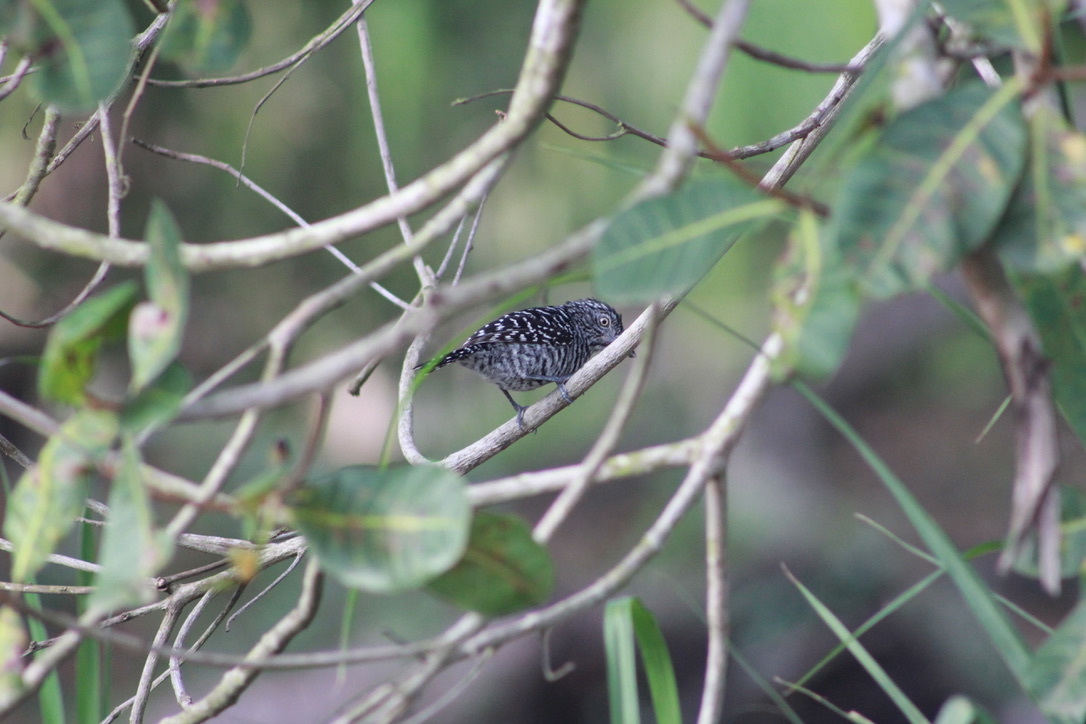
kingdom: Animalia
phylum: Chordata
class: Aves
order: Passeriformes
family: Thamnophilidae
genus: Thamnophilus
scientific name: Thamnophilus doliatus
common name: Barred antshrike
